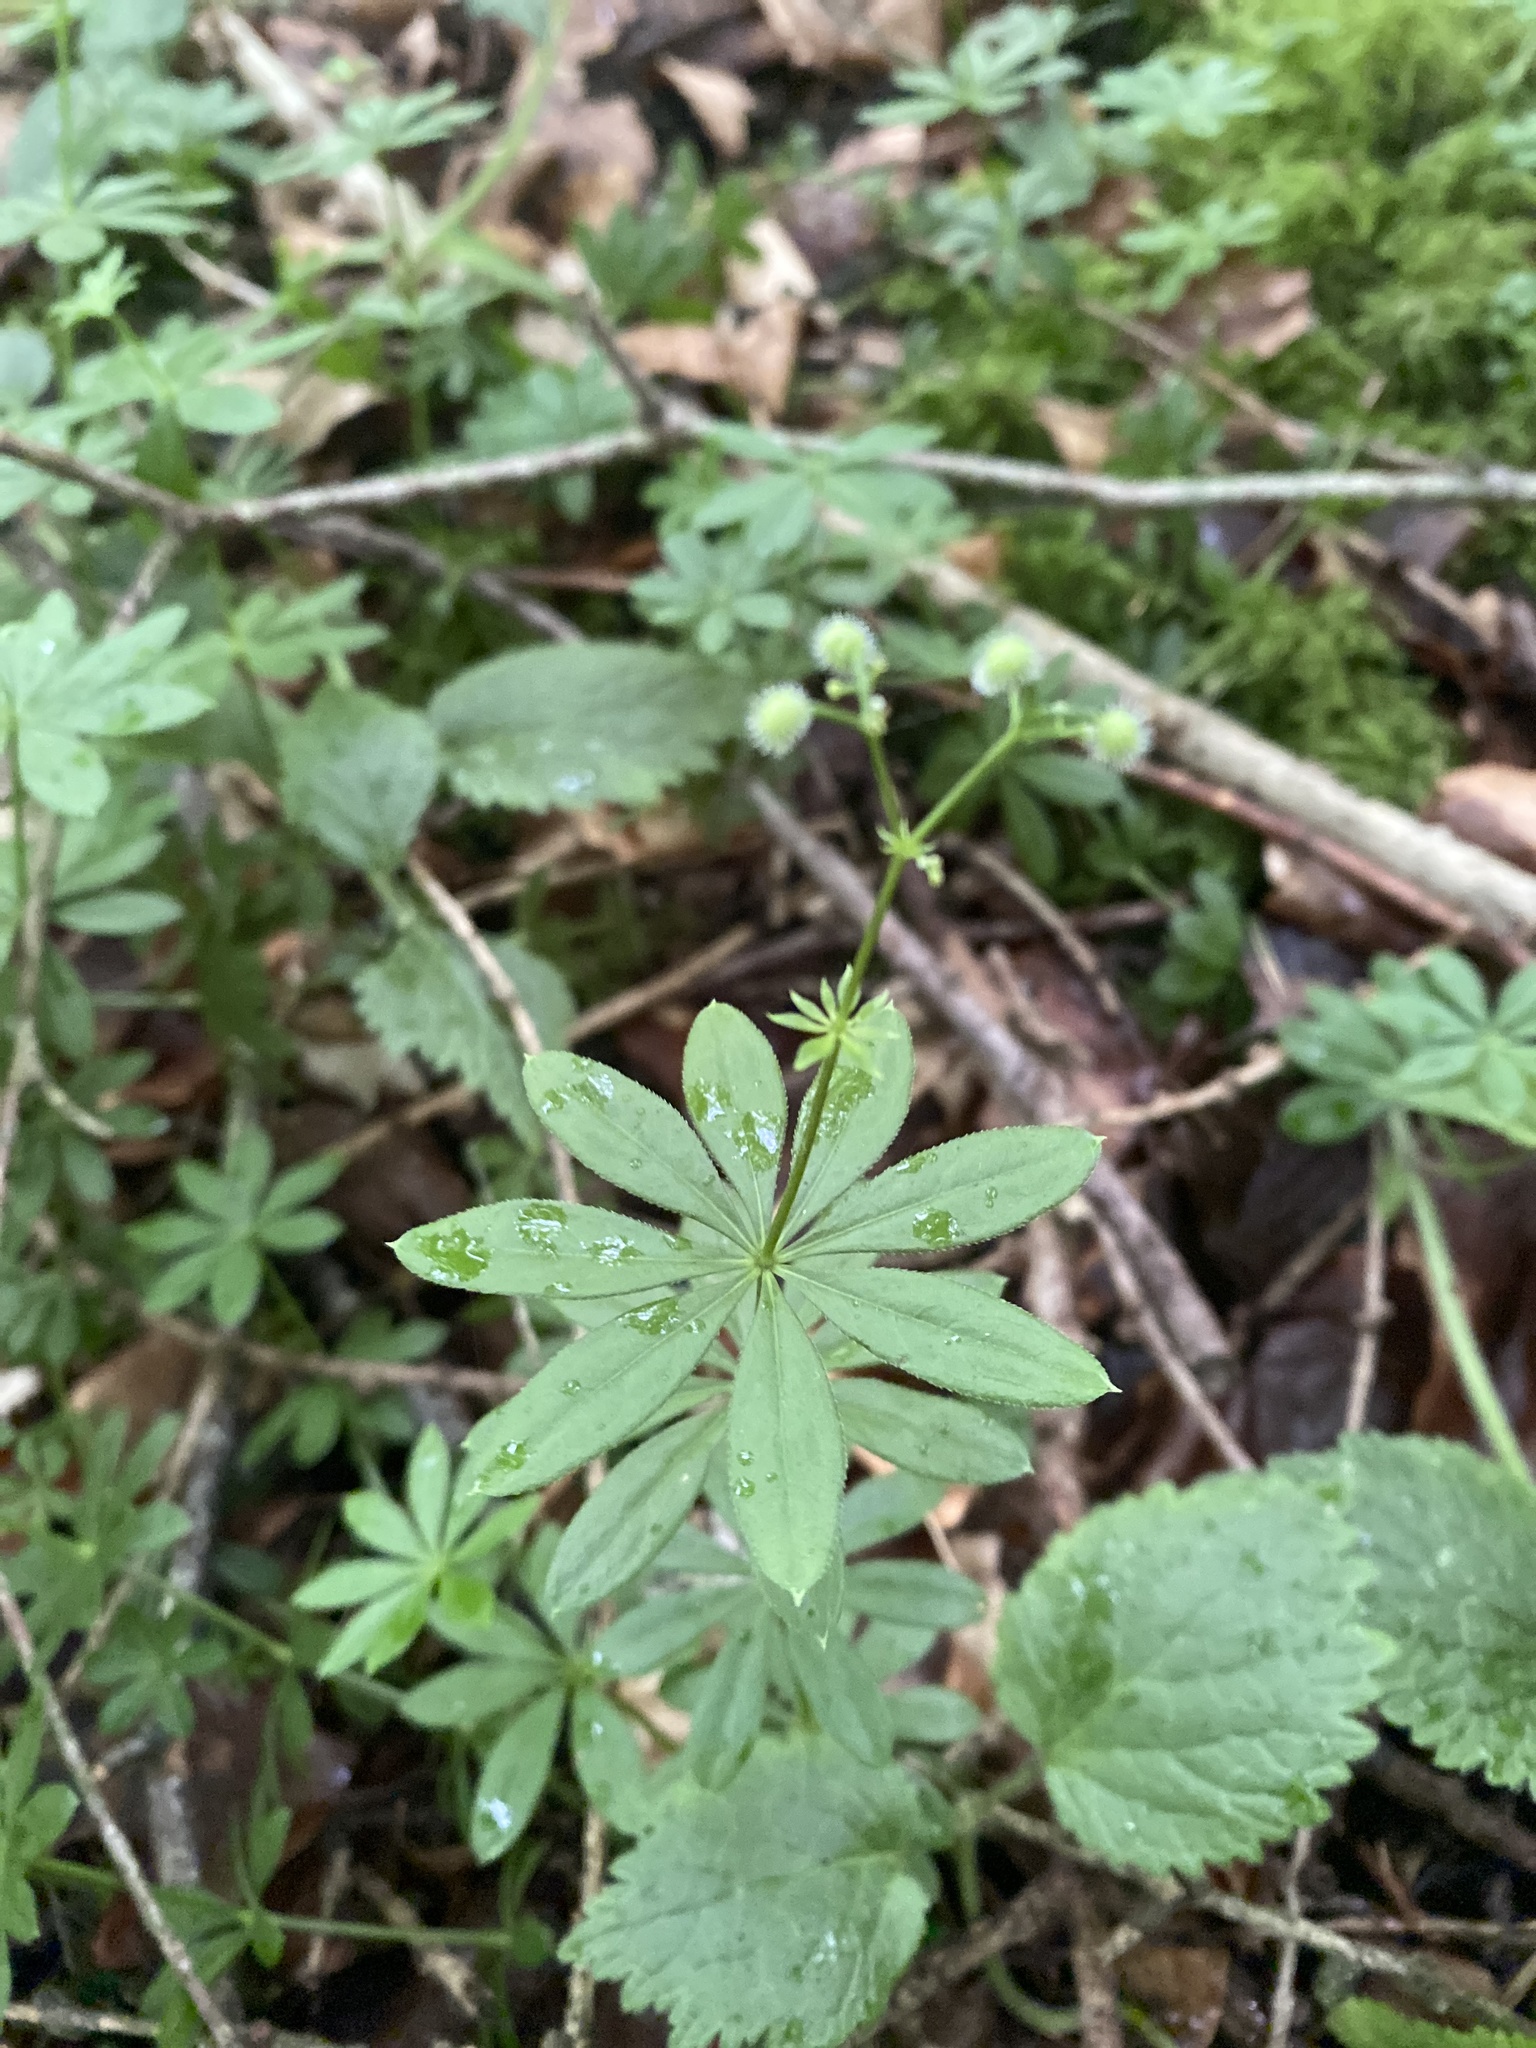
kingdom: Plantae
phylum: Tracheophyta
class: Magnoliopsida
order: Gentianales
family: Rubiaceae
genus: Galium
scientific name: Galium odoratum
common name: Sweet woodruff
